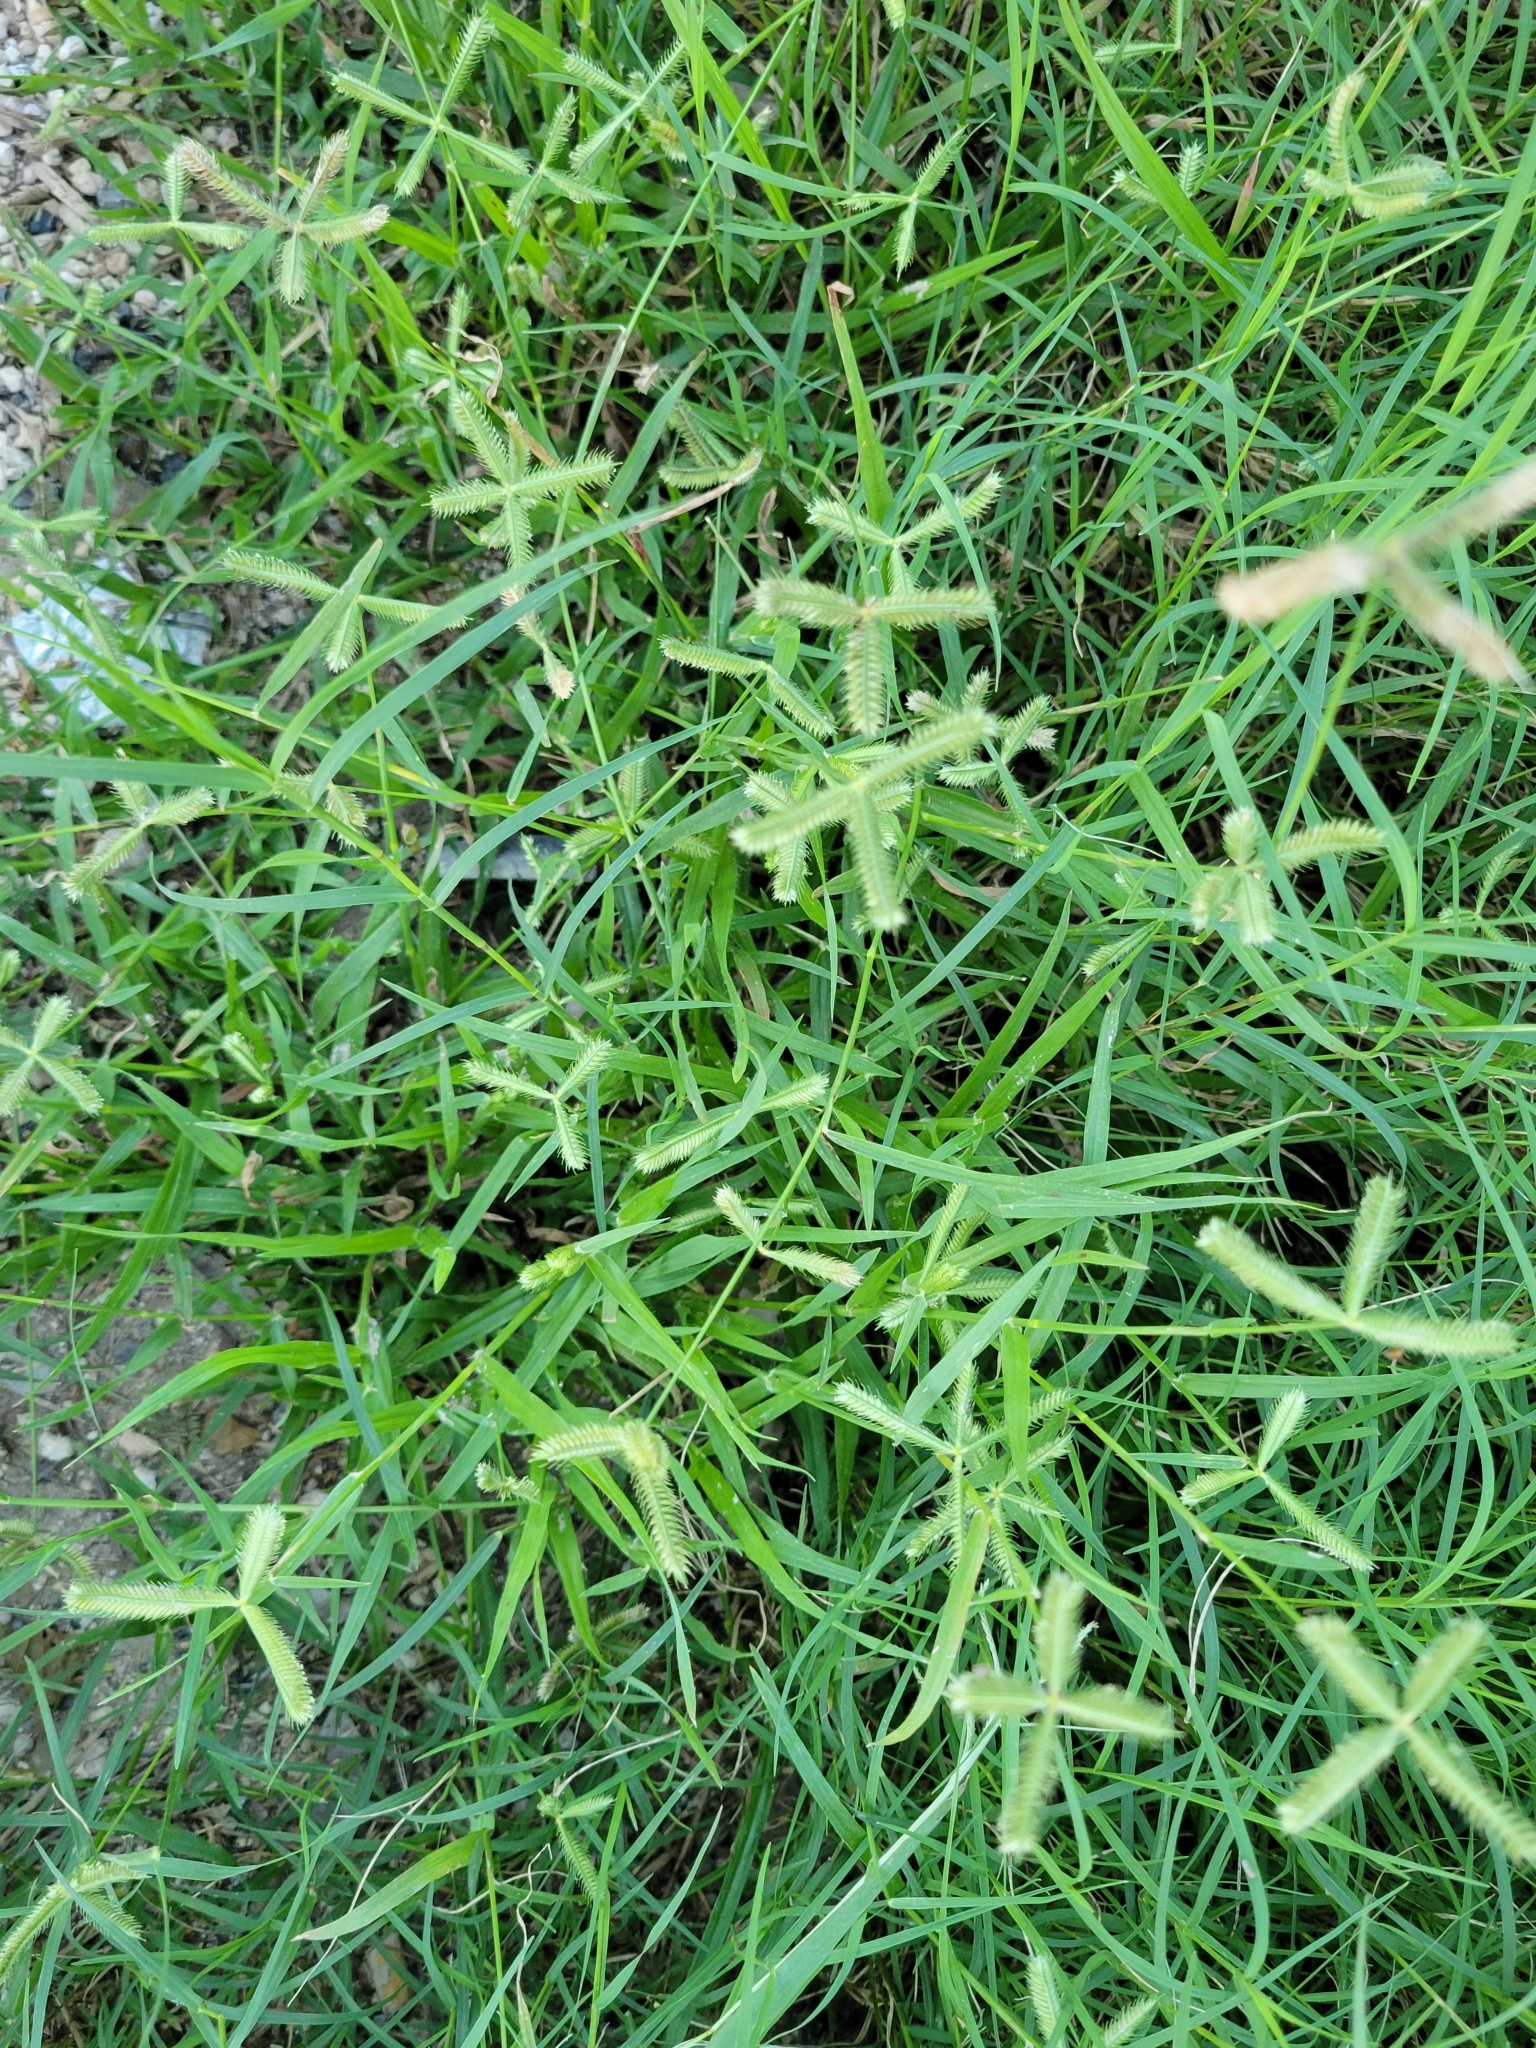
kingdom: Plantae
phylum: Tracheophyta
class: Liliopsida
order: Poales
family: Poaceae
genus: Dactyloctenium
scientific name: Dactyloctenium aegyptium
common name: Egyptian grass
